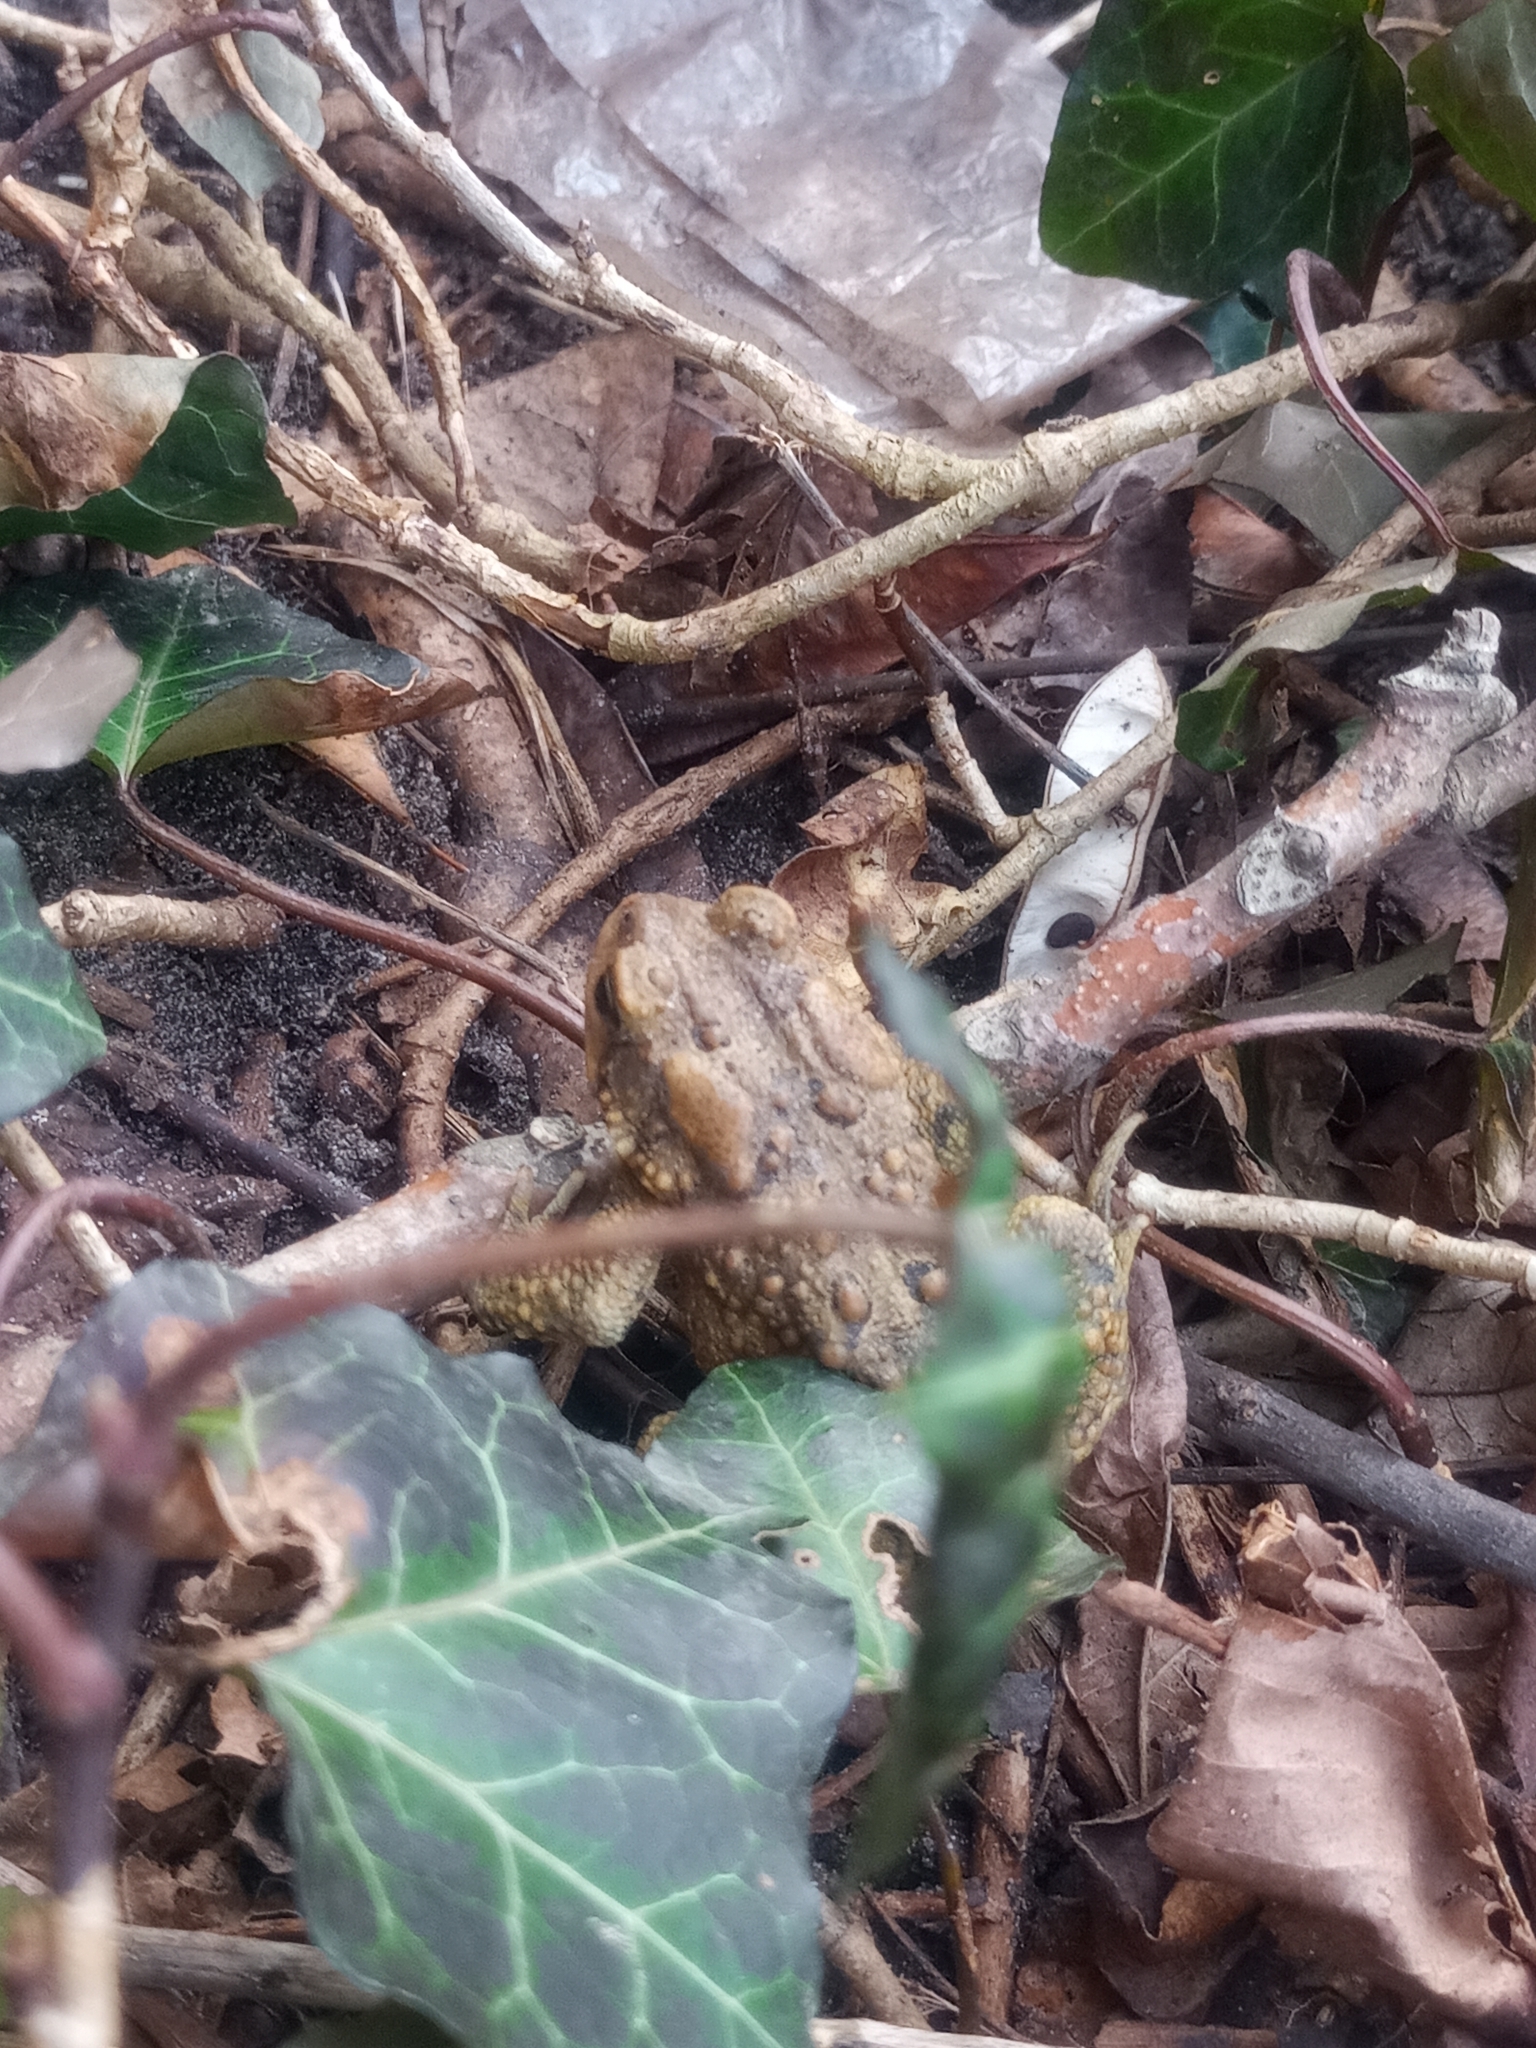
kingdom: Animalia
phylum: Chordata
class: Amphibia
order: Anura
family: Bufonidae
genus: Anaxyrus
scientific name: Anaxyrus americanus
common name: American toad
